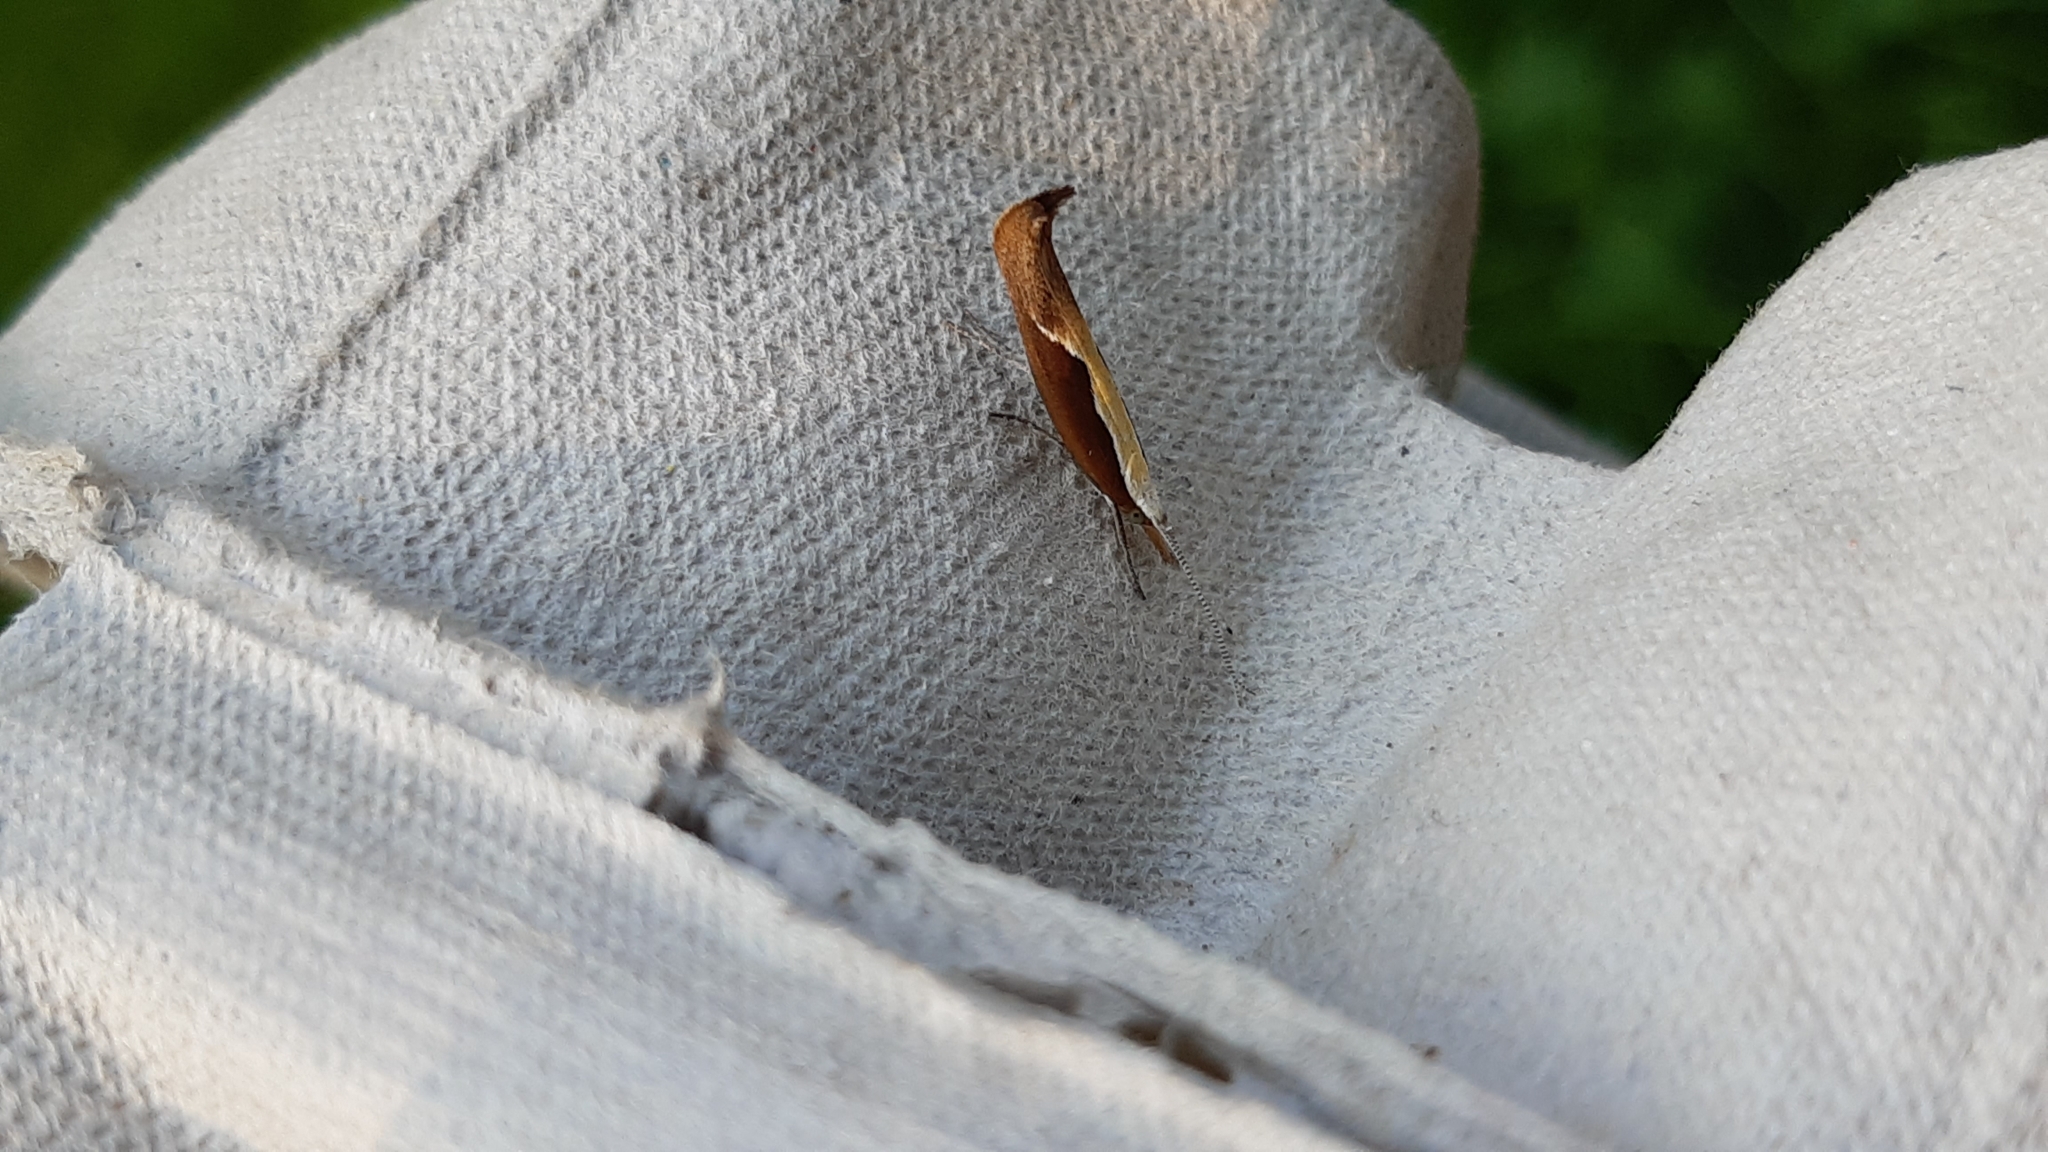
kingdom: Animalia
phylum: Arthropoda
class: Insecta
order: Lepidoptera
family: Ypsolophidae
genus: Ypsolopha
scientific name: Ypsolopha dentella
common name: Honeysuckle moth
